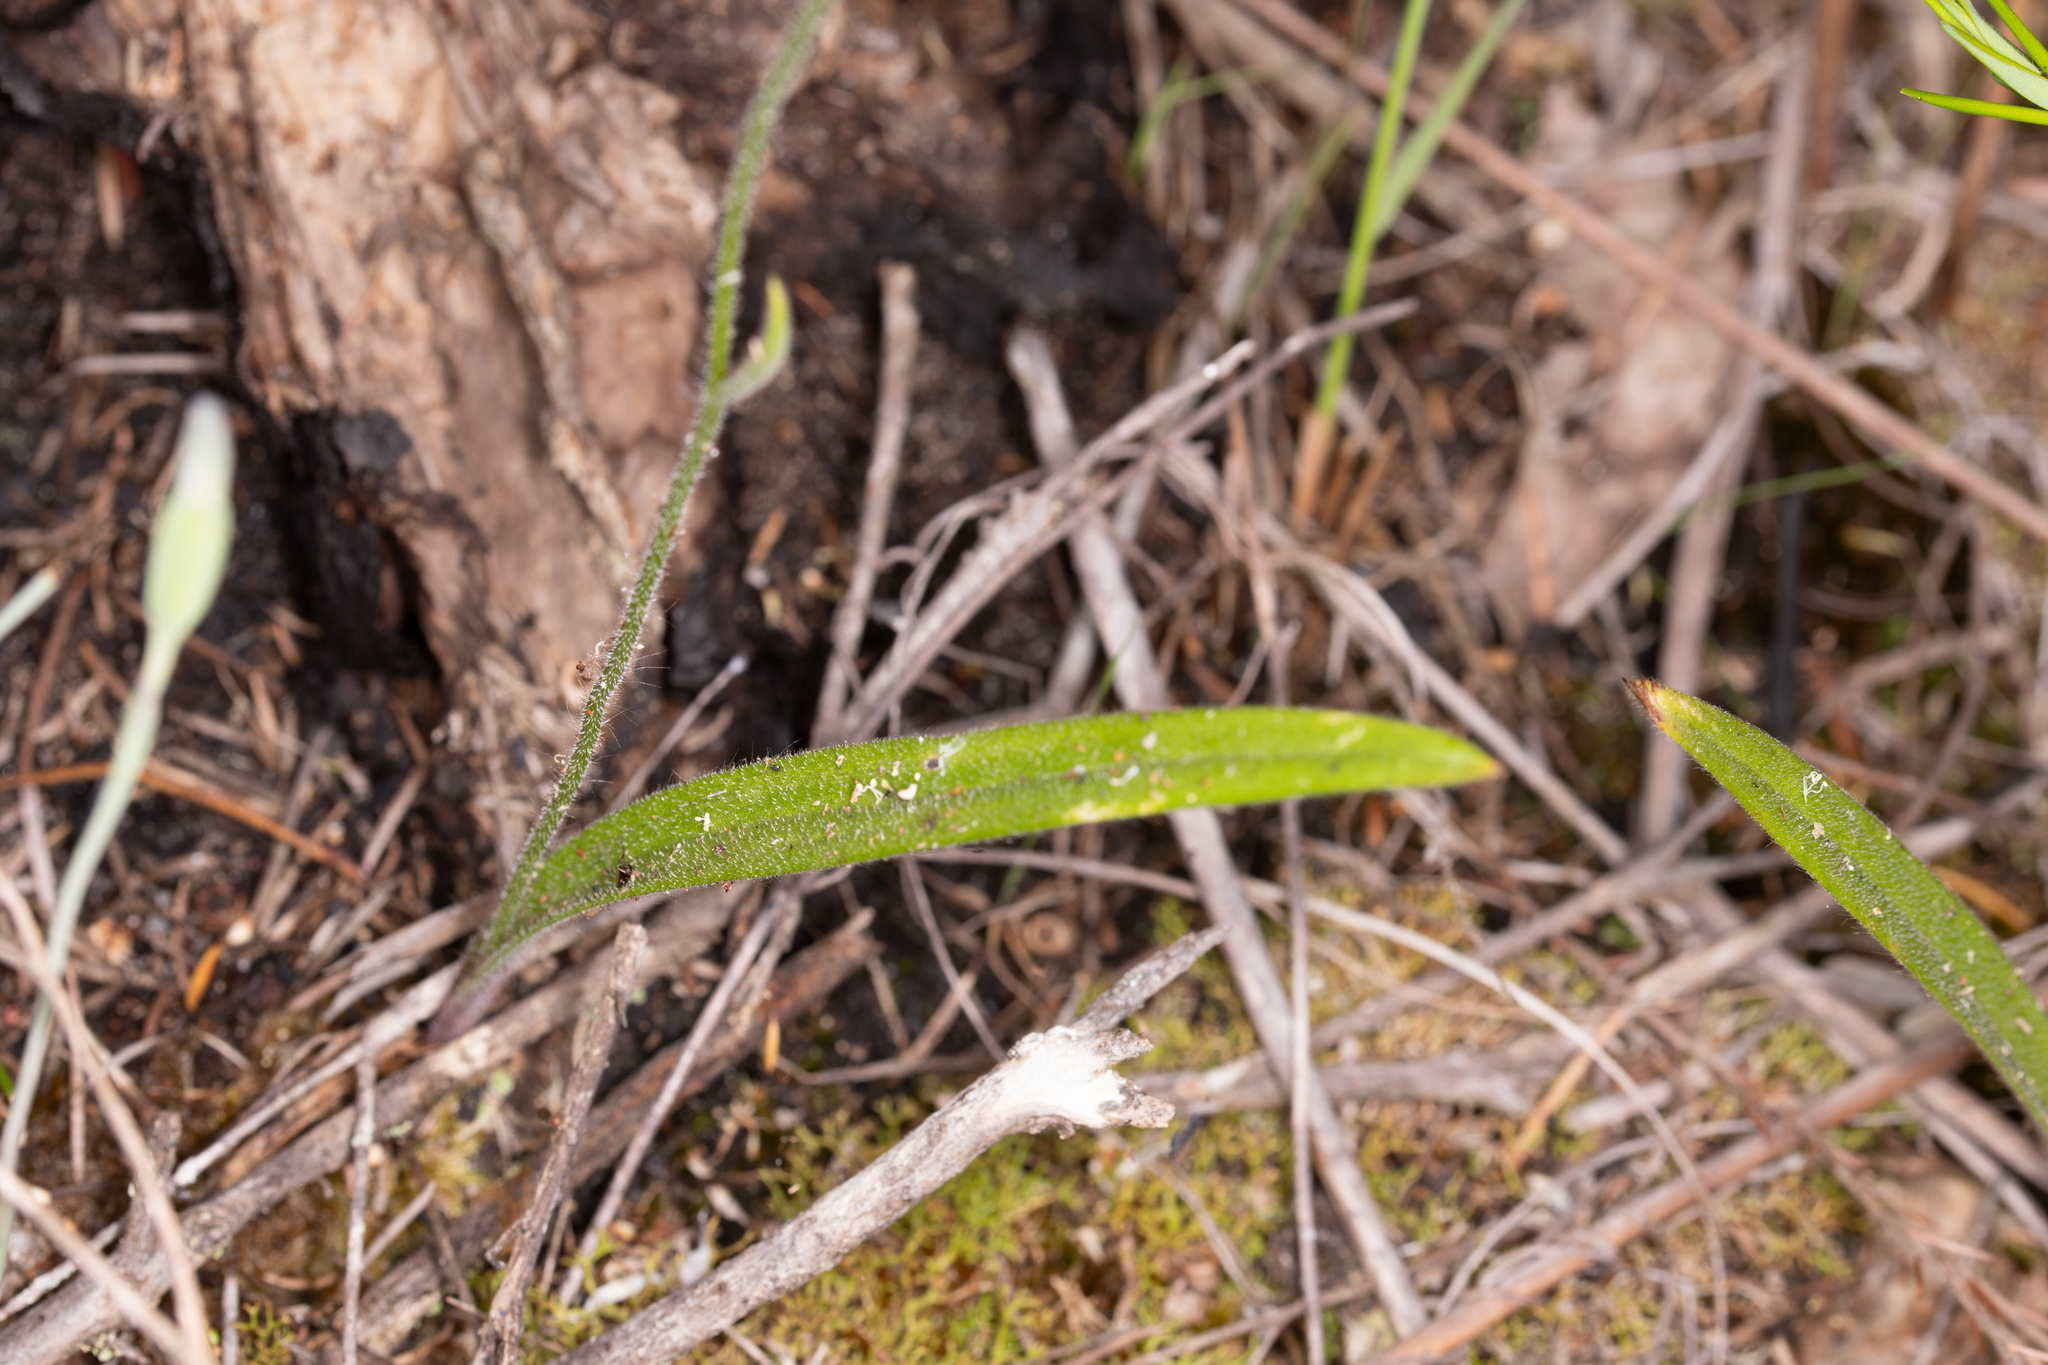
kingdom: Plantae
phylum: Tracheophyta
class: Liliopsida
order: Asparagales
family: Orchidaceae
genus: Caladenia
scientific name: Caladenia flava
